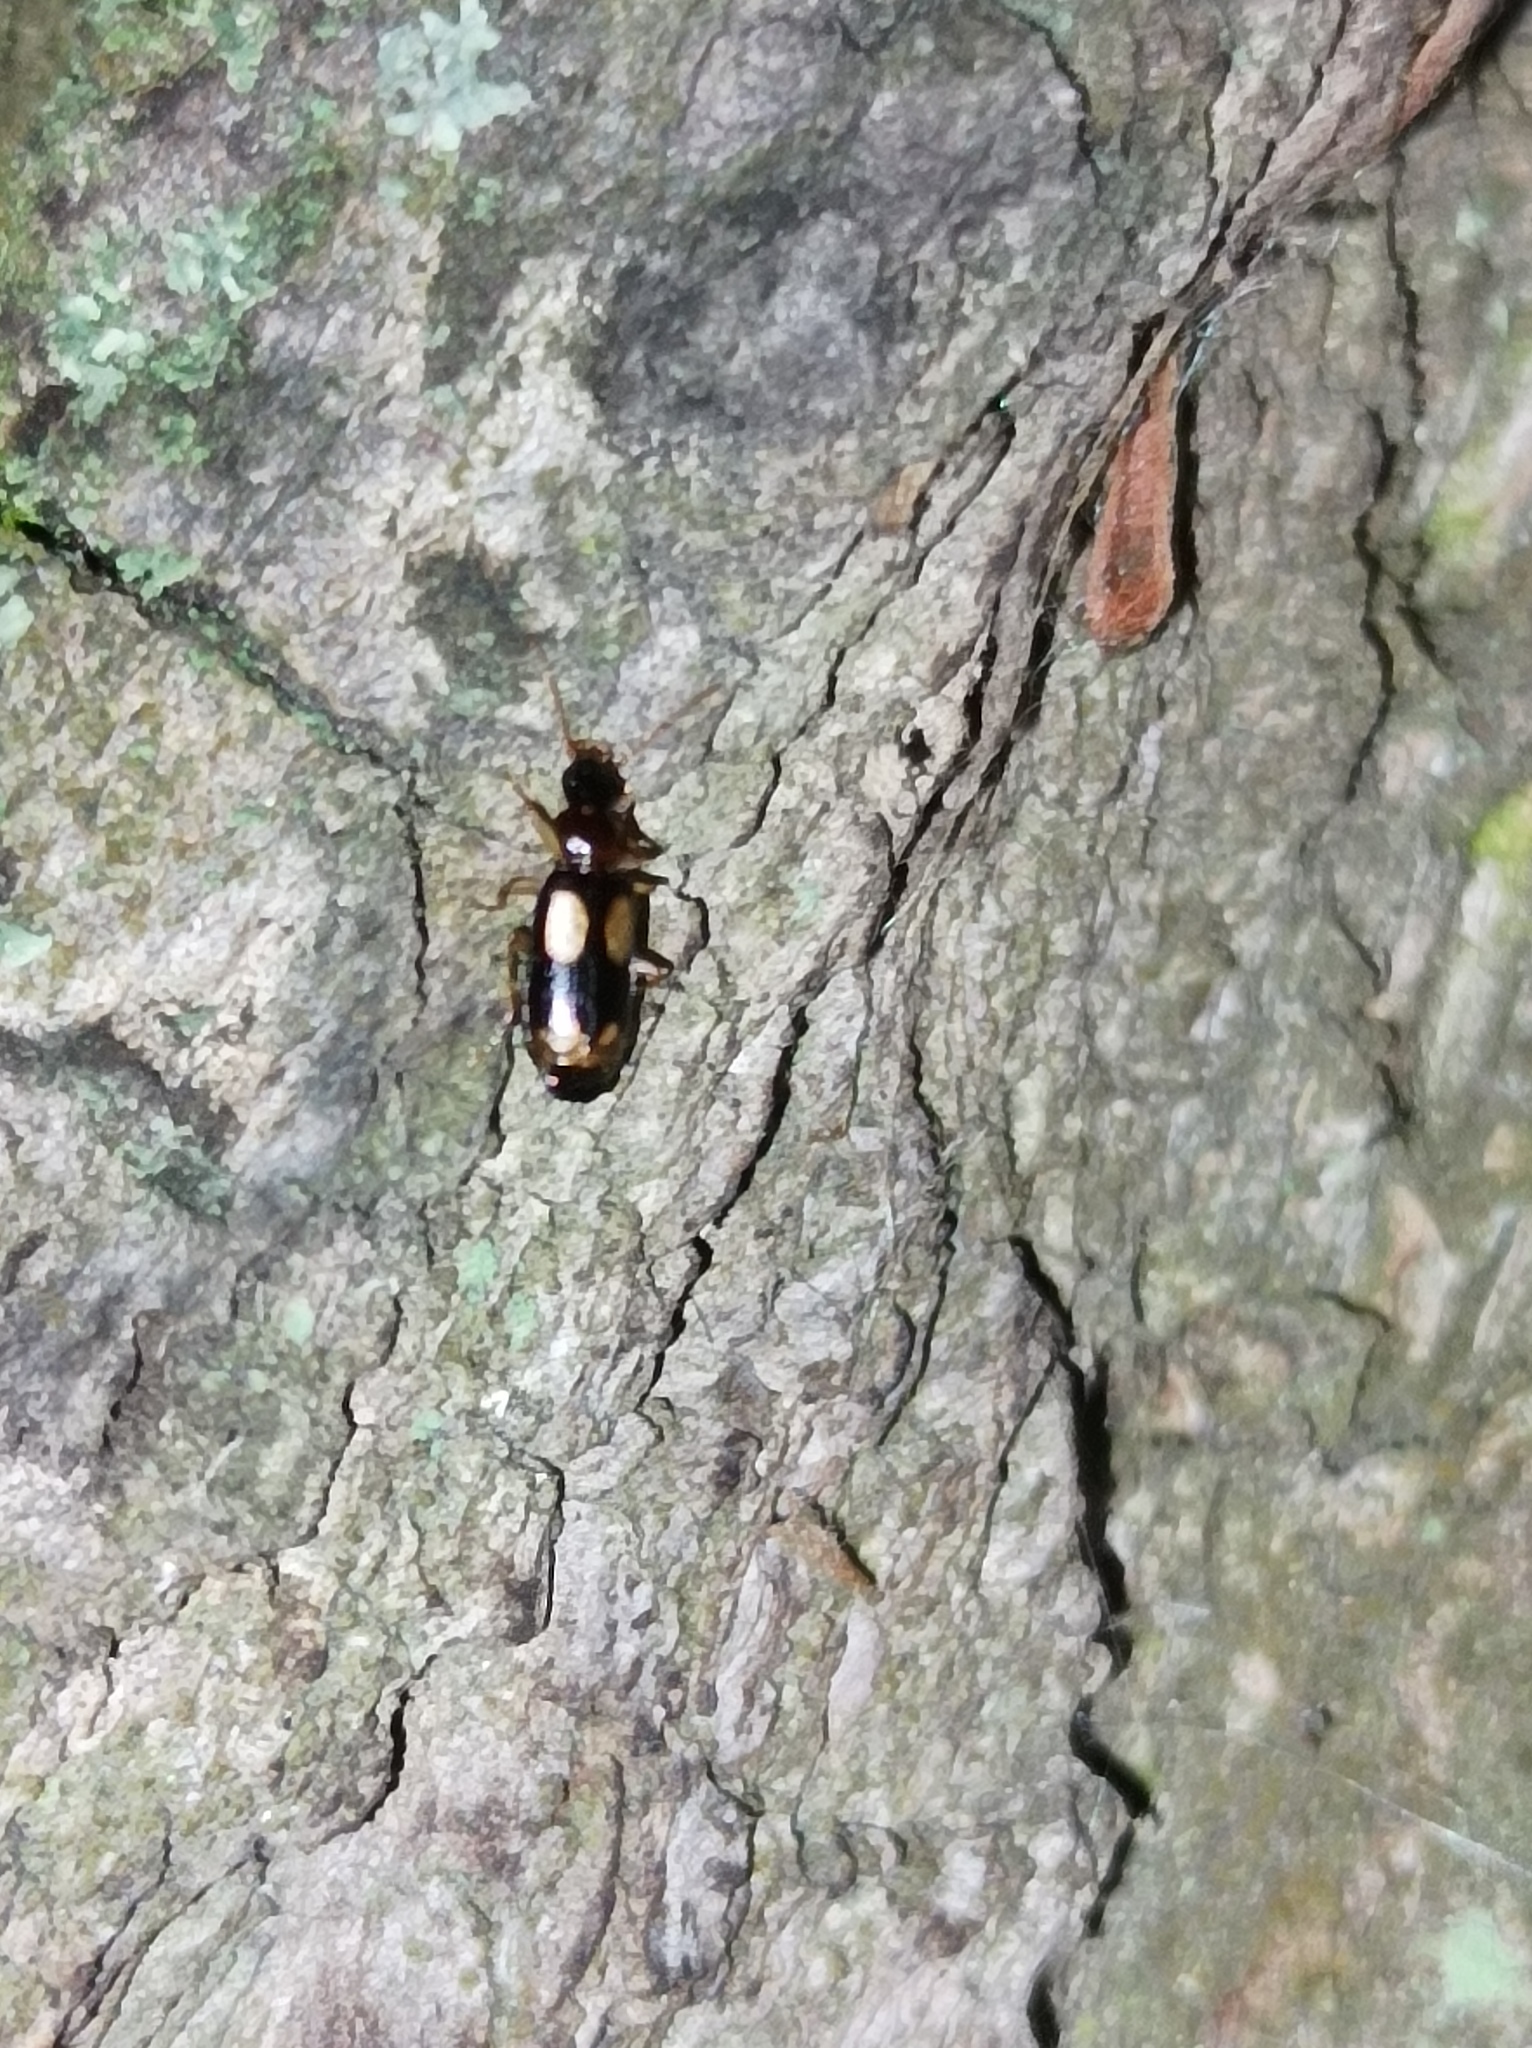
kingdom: Animalia
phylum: Arthropoda
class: Insecta
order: Coleoptera
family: Carabidae
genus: Dromius
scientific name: Dromius quadrimaculatus
